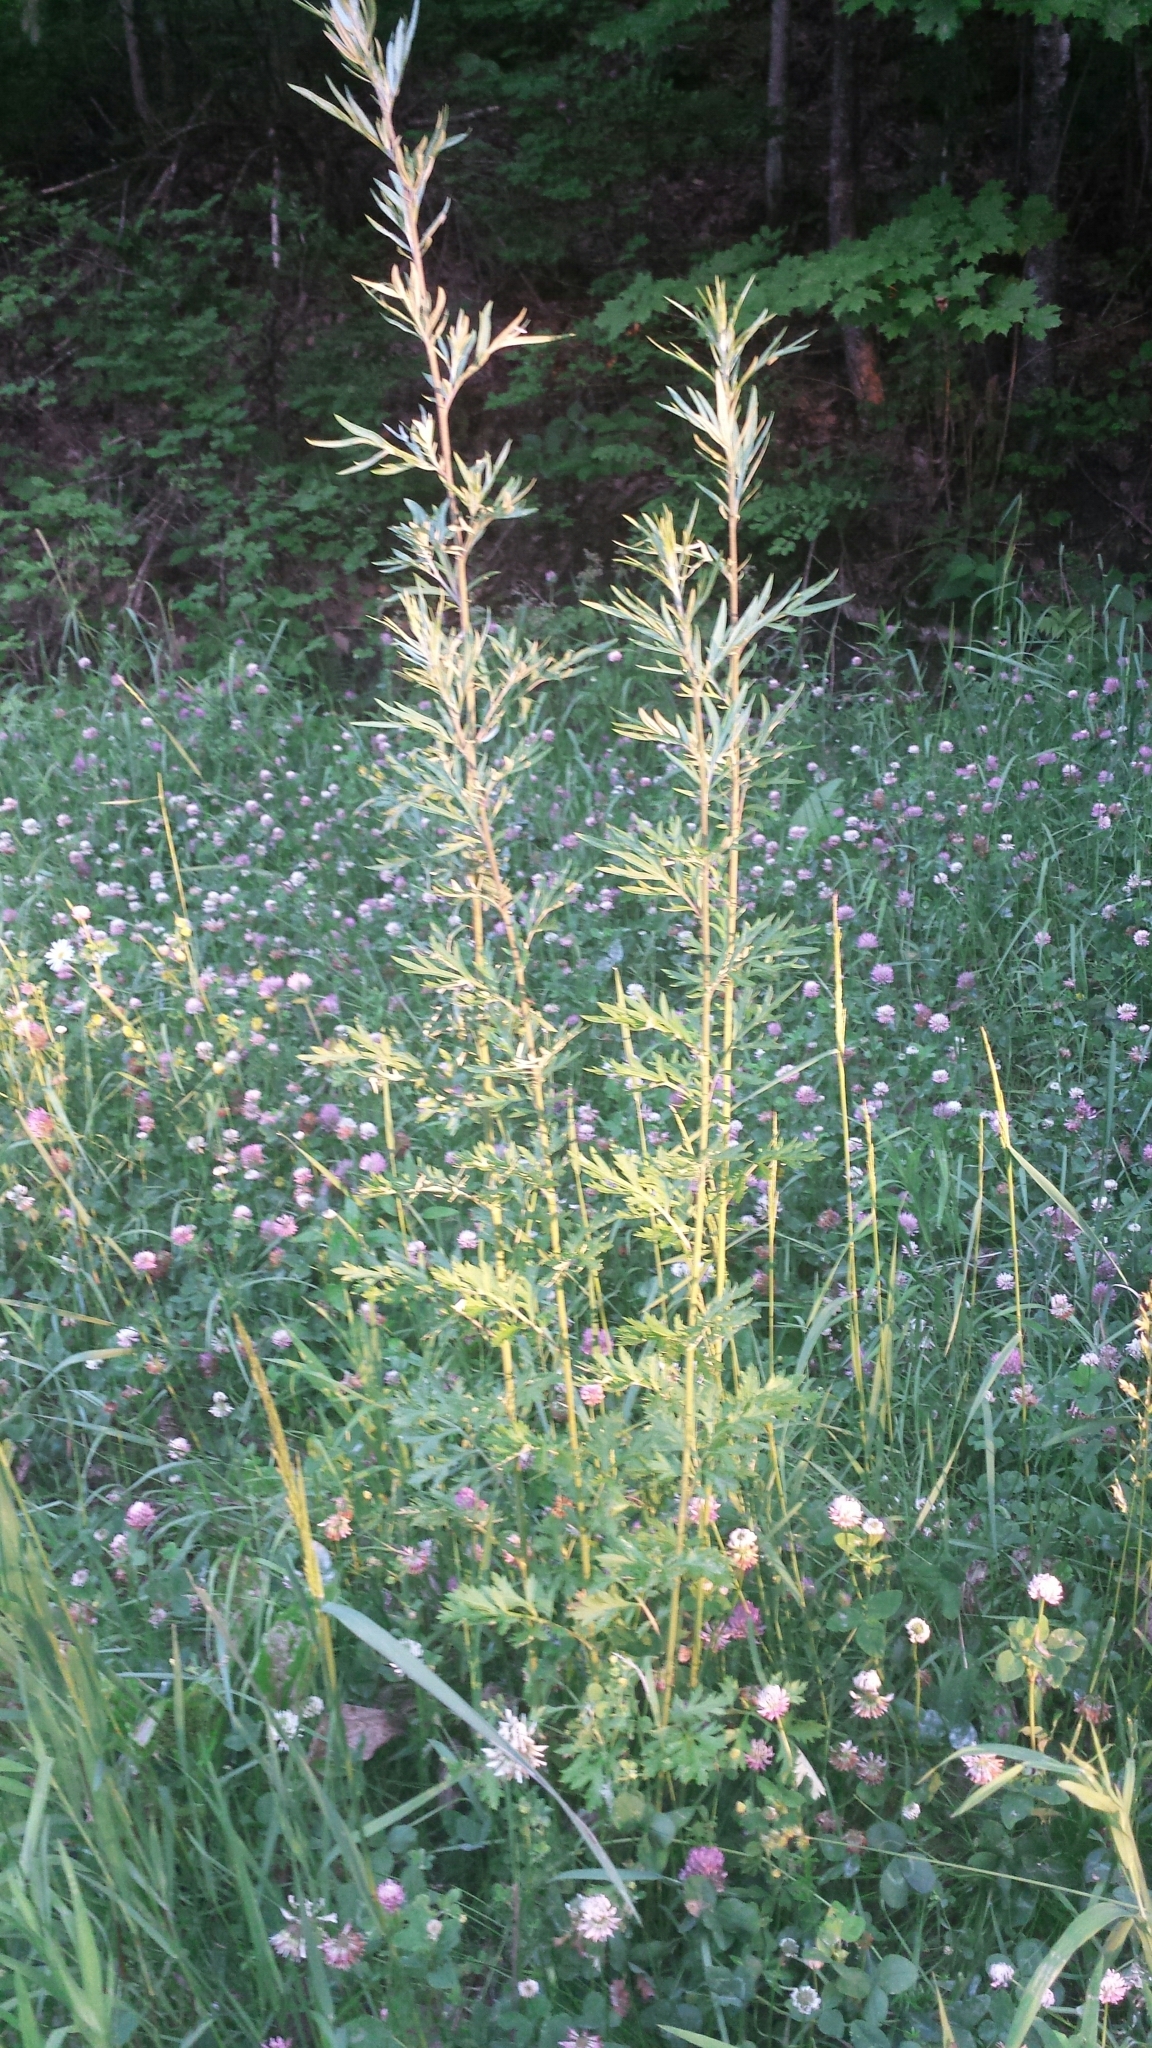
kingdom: Plantae
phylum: Tracheophyta
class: Magnoliopsida
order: Asterales
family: Asteraceae
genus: Artemisia
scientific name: Artemisia vulgaris
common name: Mugwort
